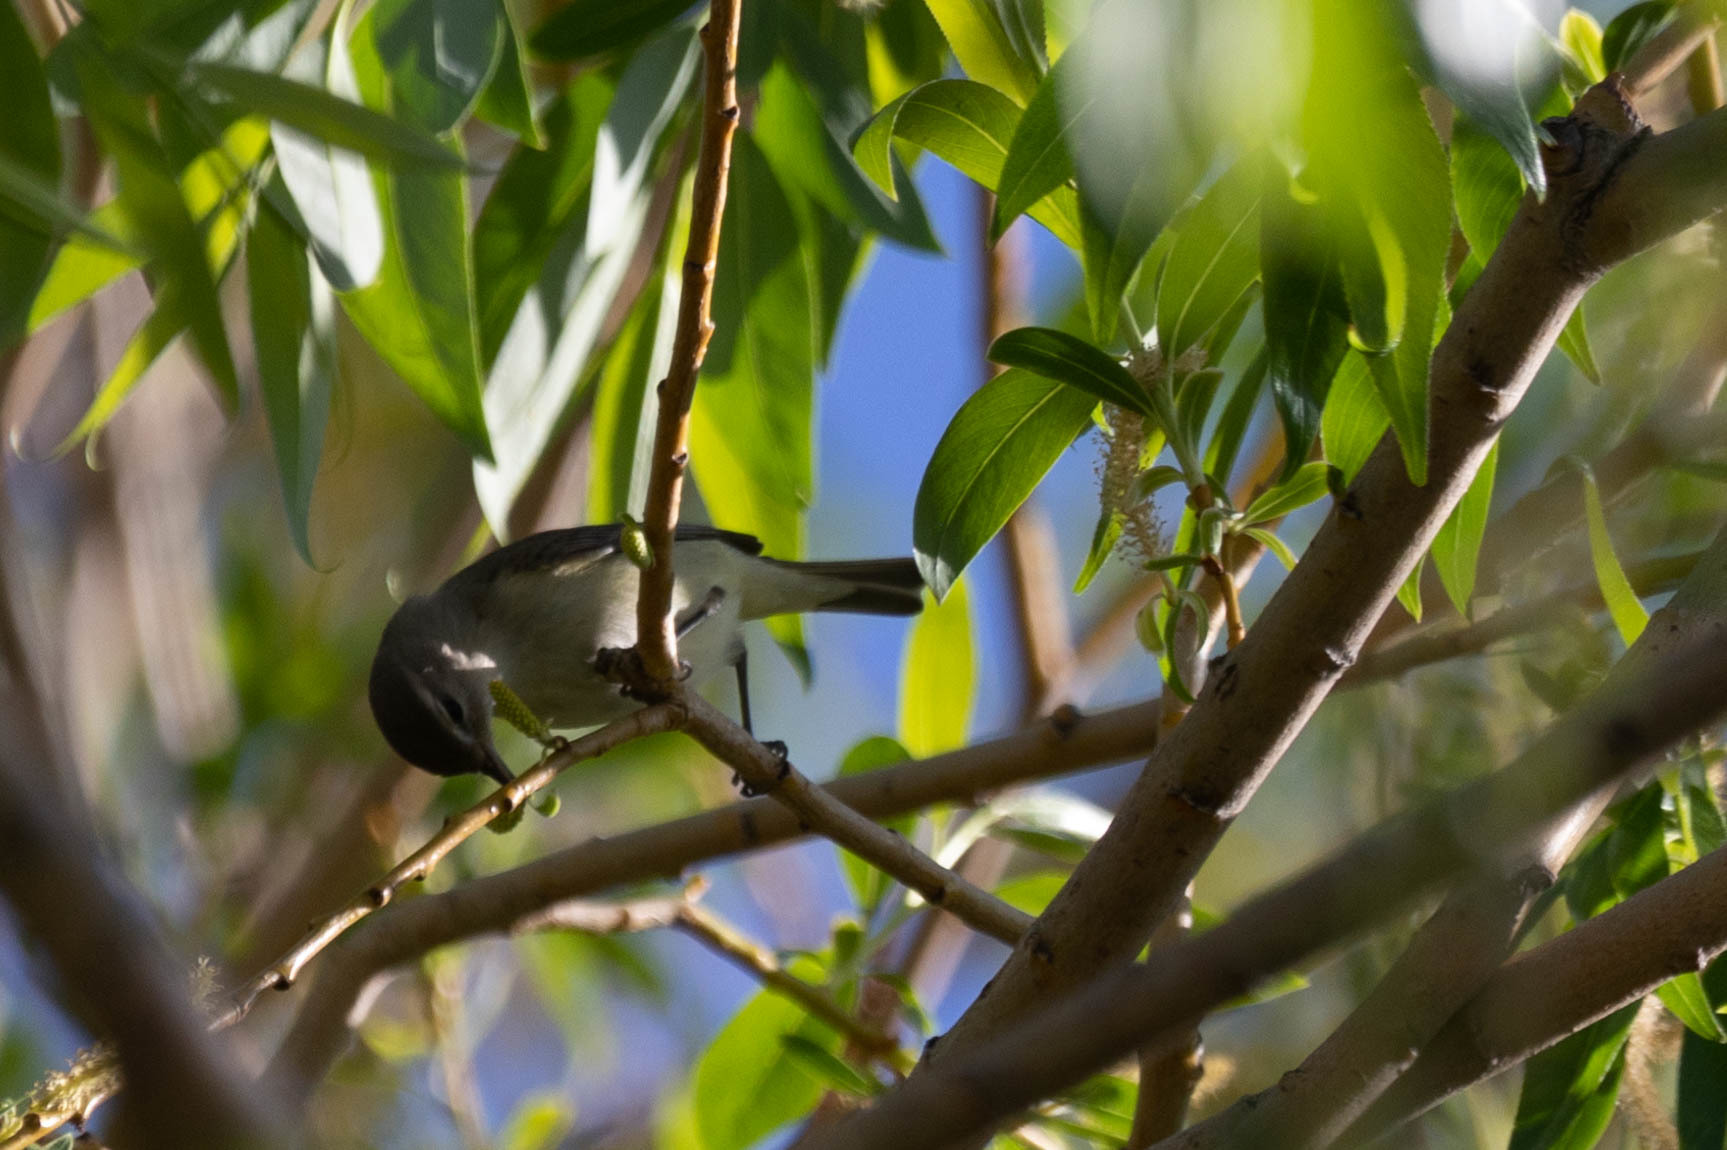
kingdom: Animalia
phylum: Chordata
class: Aves
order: Passeriformes
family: Vireonidae
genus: Vireo
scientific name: Vireo gilvus
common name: Warbling vireo
